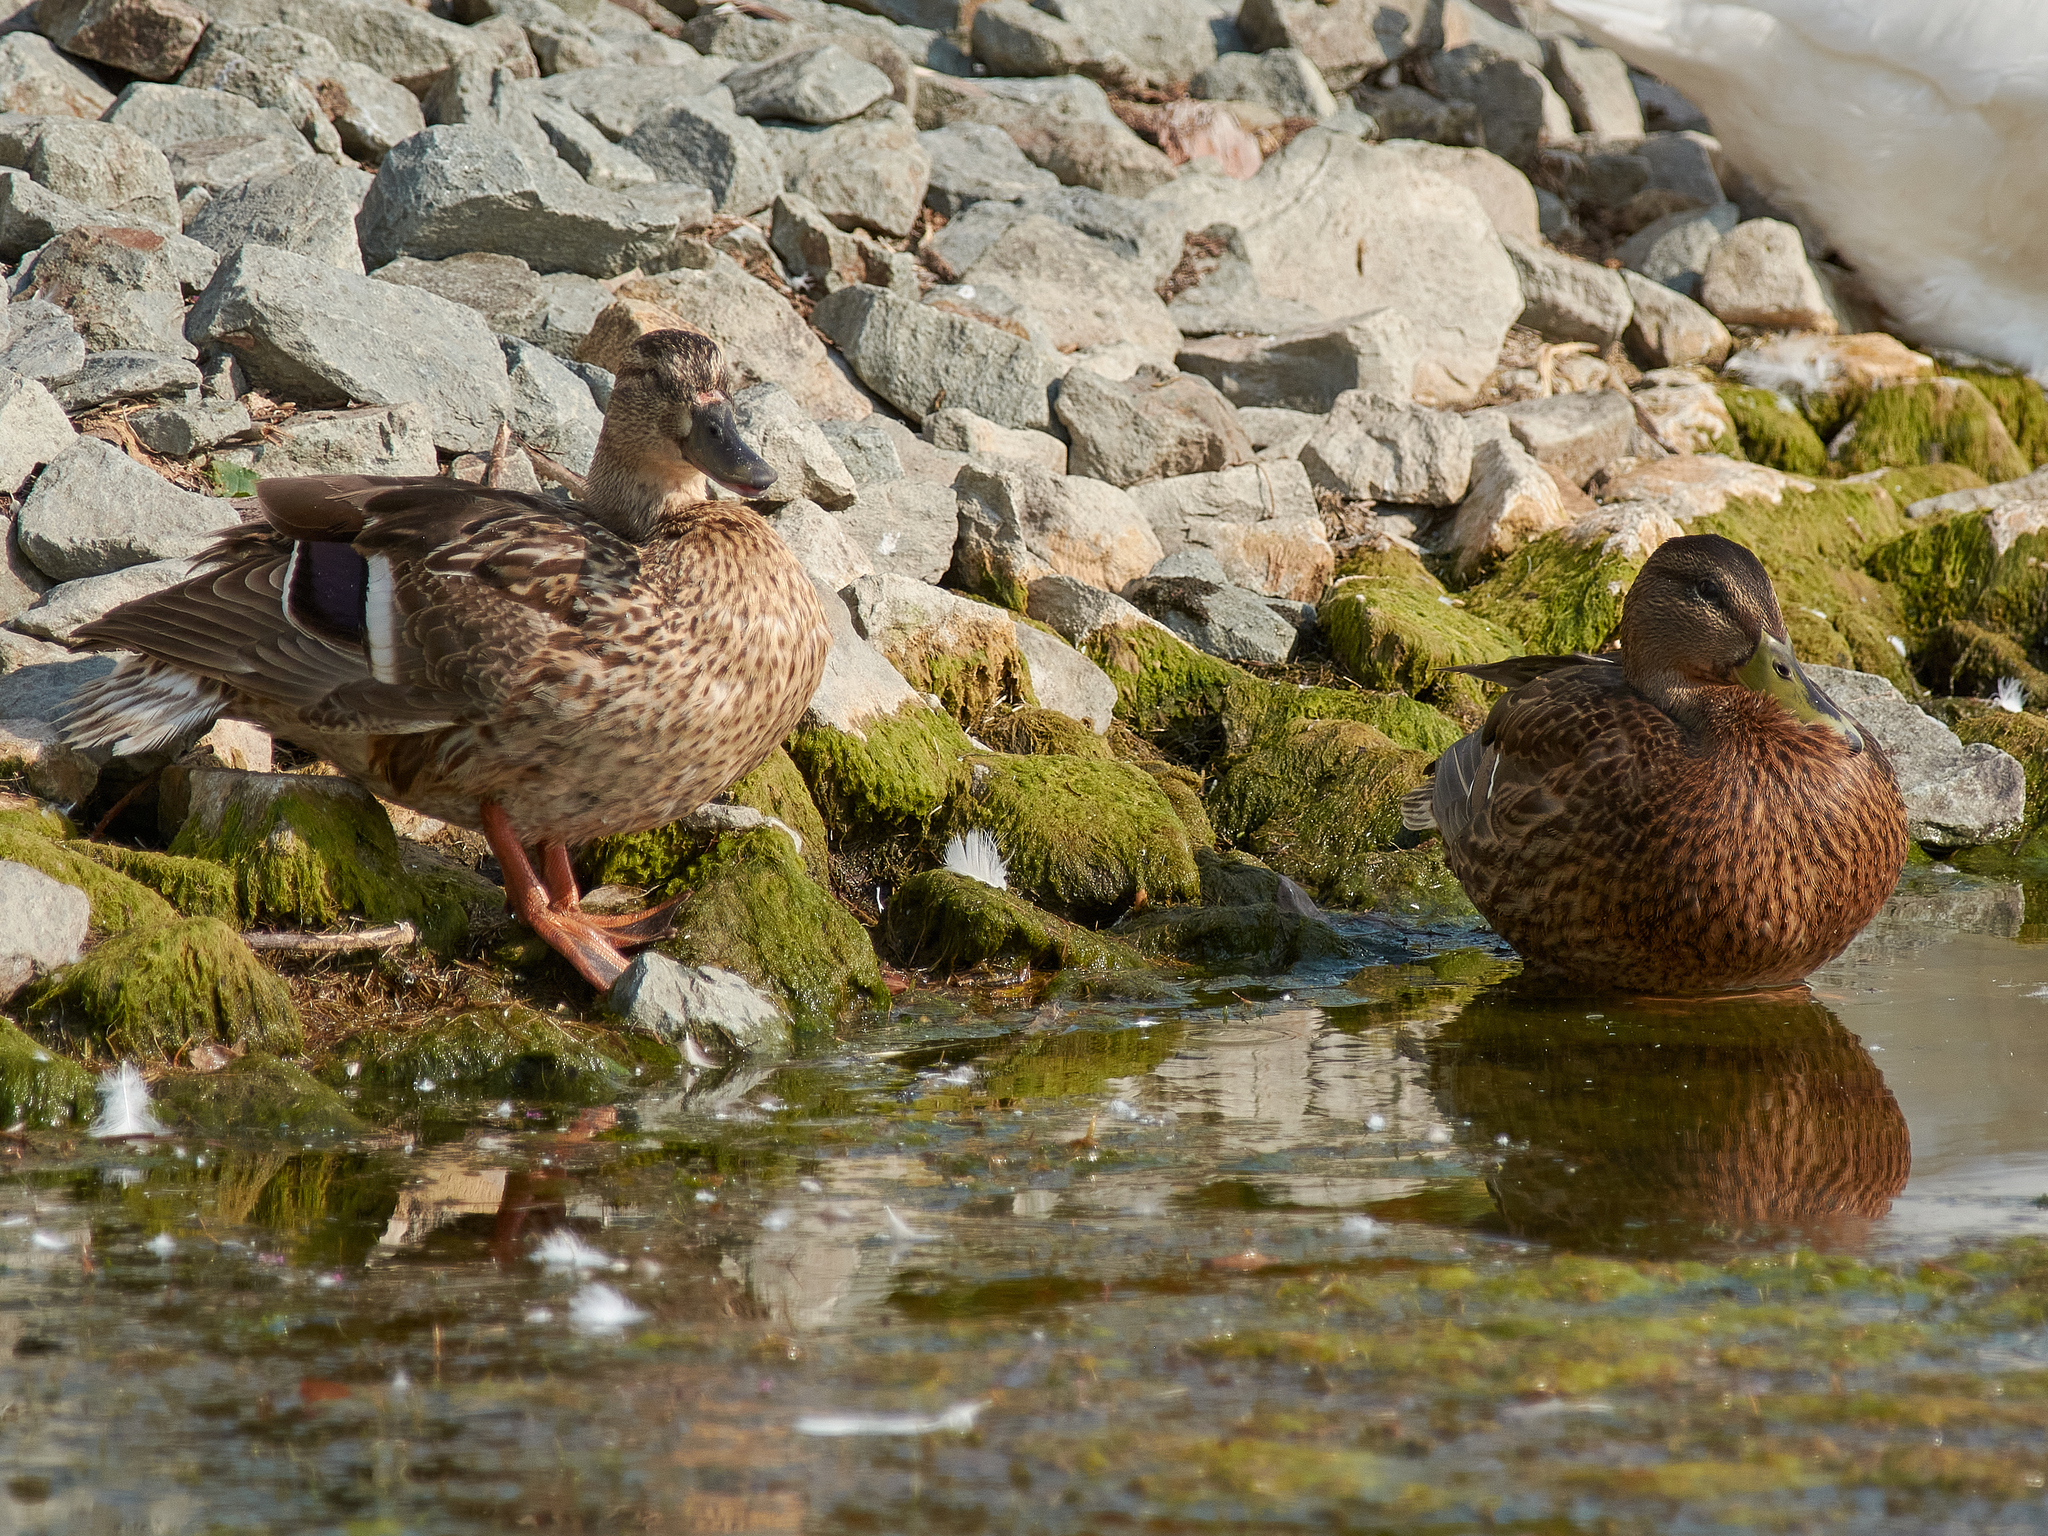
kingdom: Animalia
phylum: Chordata
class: Aves
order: Anseriformes
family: Anatidae
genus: Anas
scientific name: Anas platyrhynchos
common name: Mallard
